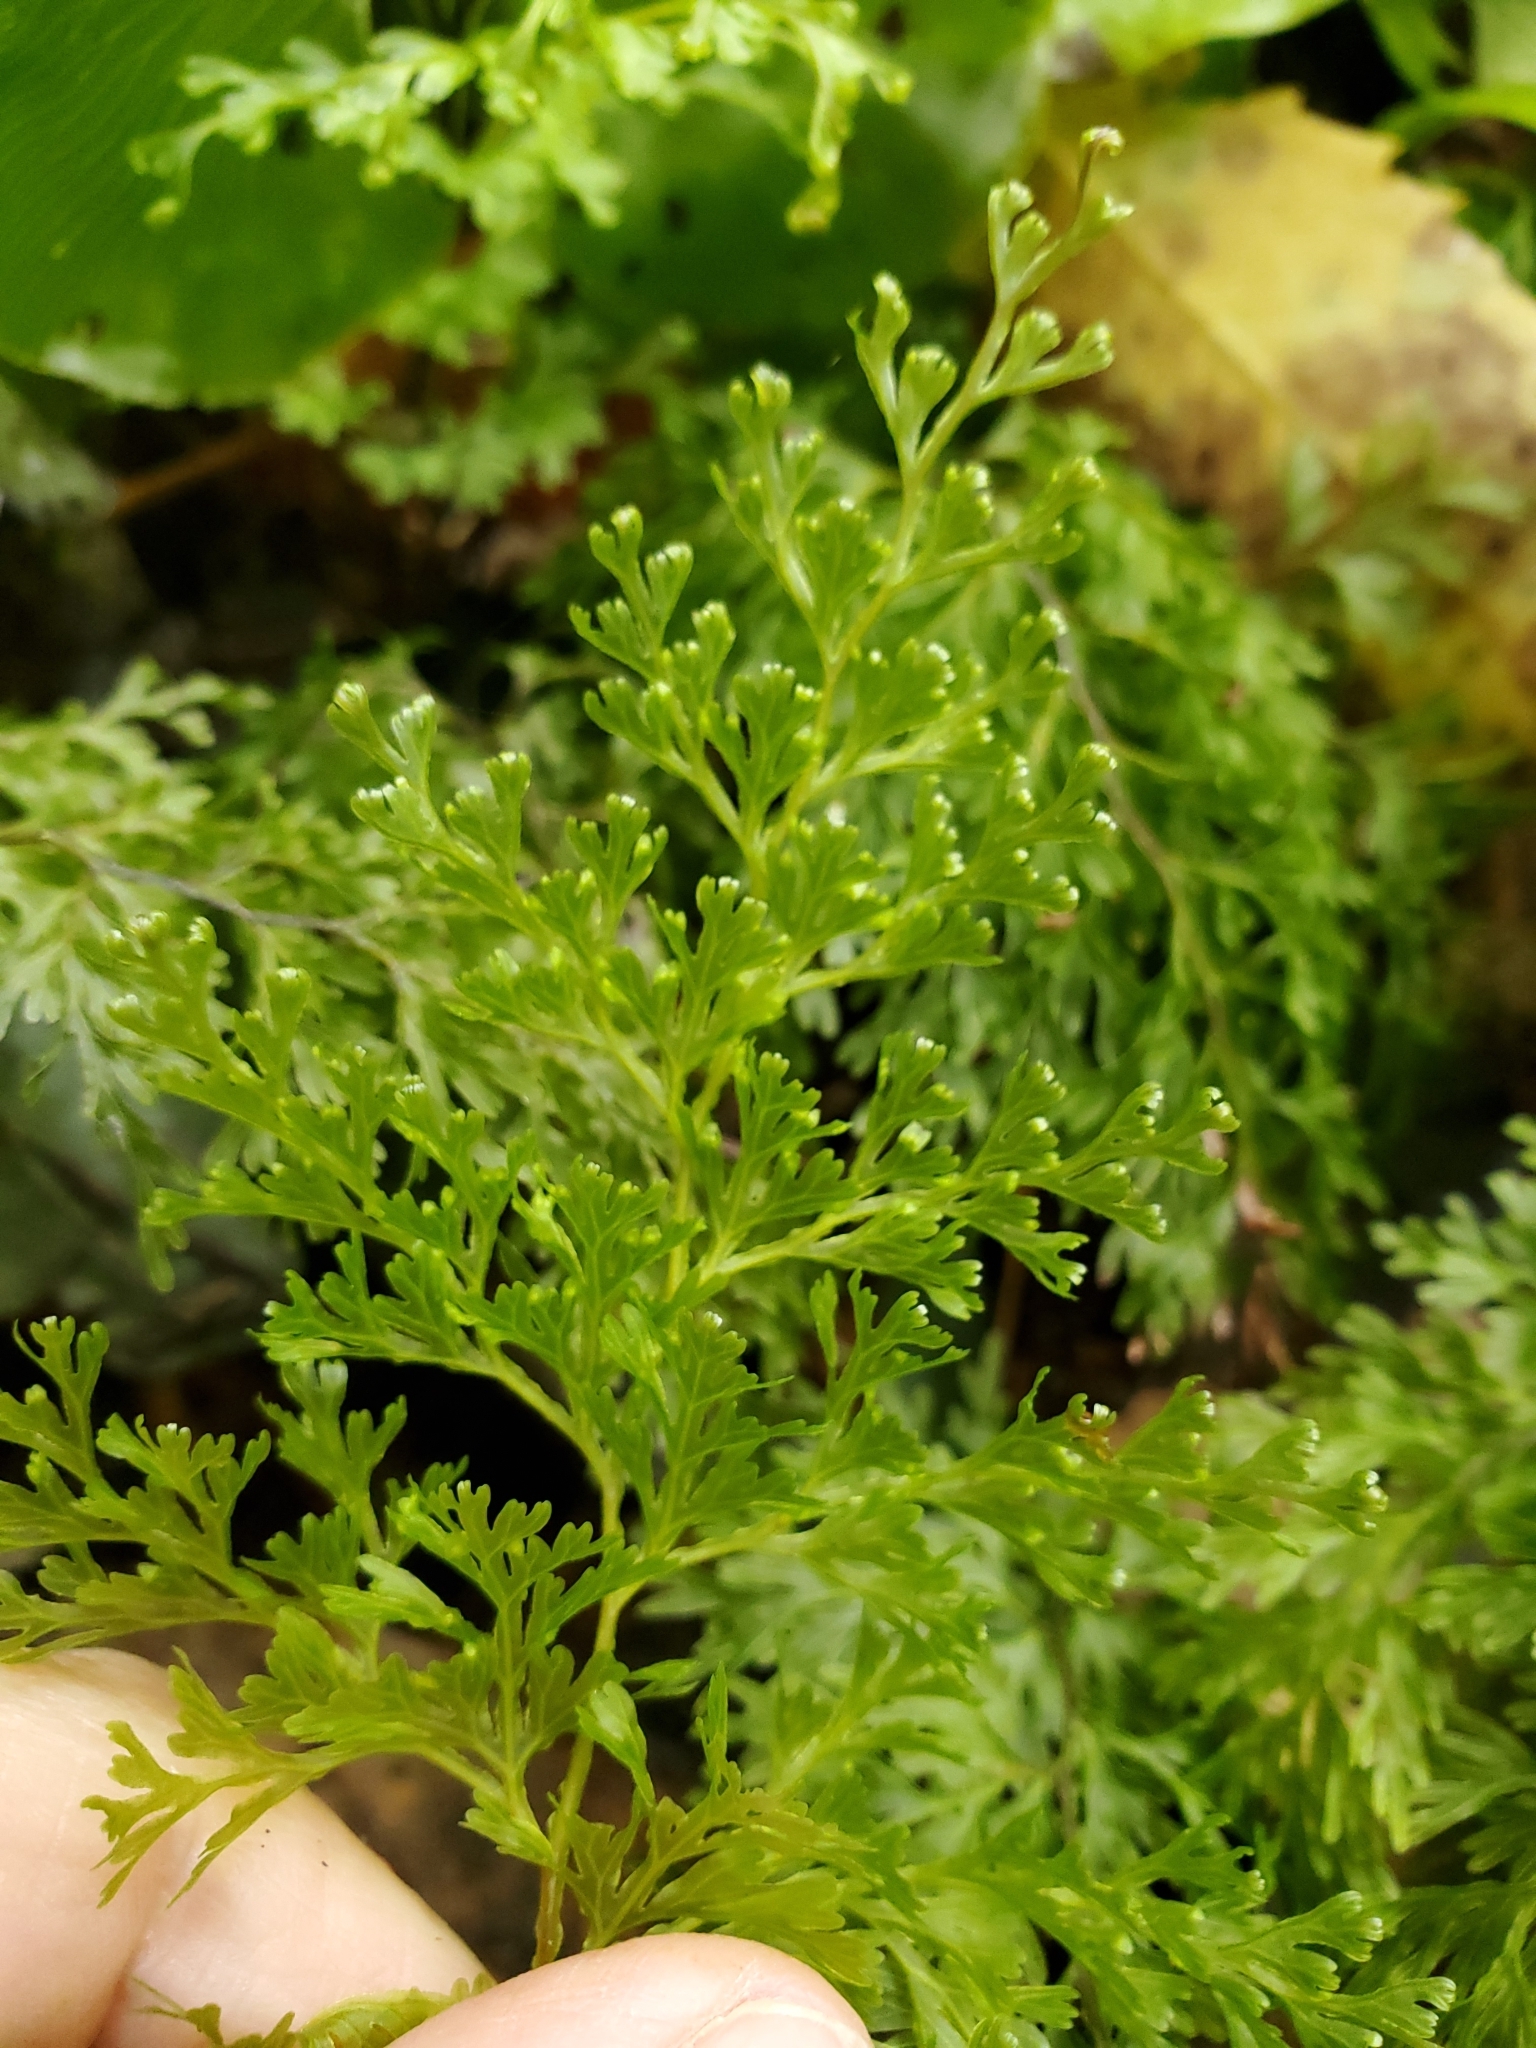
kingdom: Plantae
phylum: Tracheophyta
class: Polypodiopsida
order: Hymenophyllales
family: Hymenophyllaceae
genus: Hymenophyllum
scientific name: Hymenophyllum demissum
